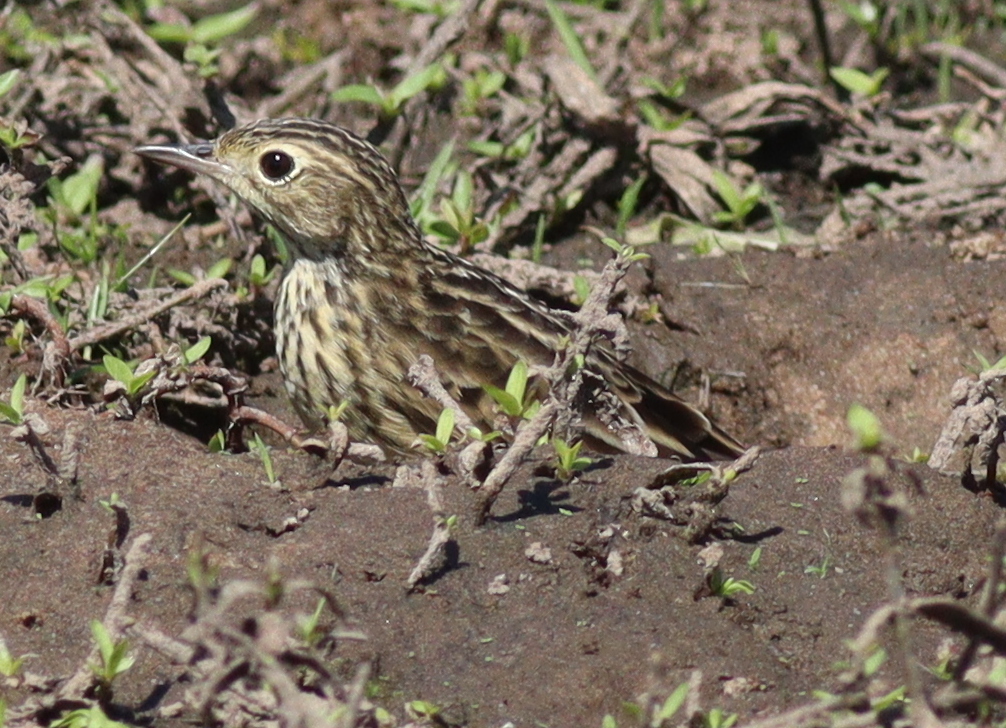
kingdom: Animalia
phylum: Chordata
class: Aves
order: Passeriformes
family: Motacillidae
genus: Anthus
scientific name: Anthus chii
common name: Yellowish pipit
